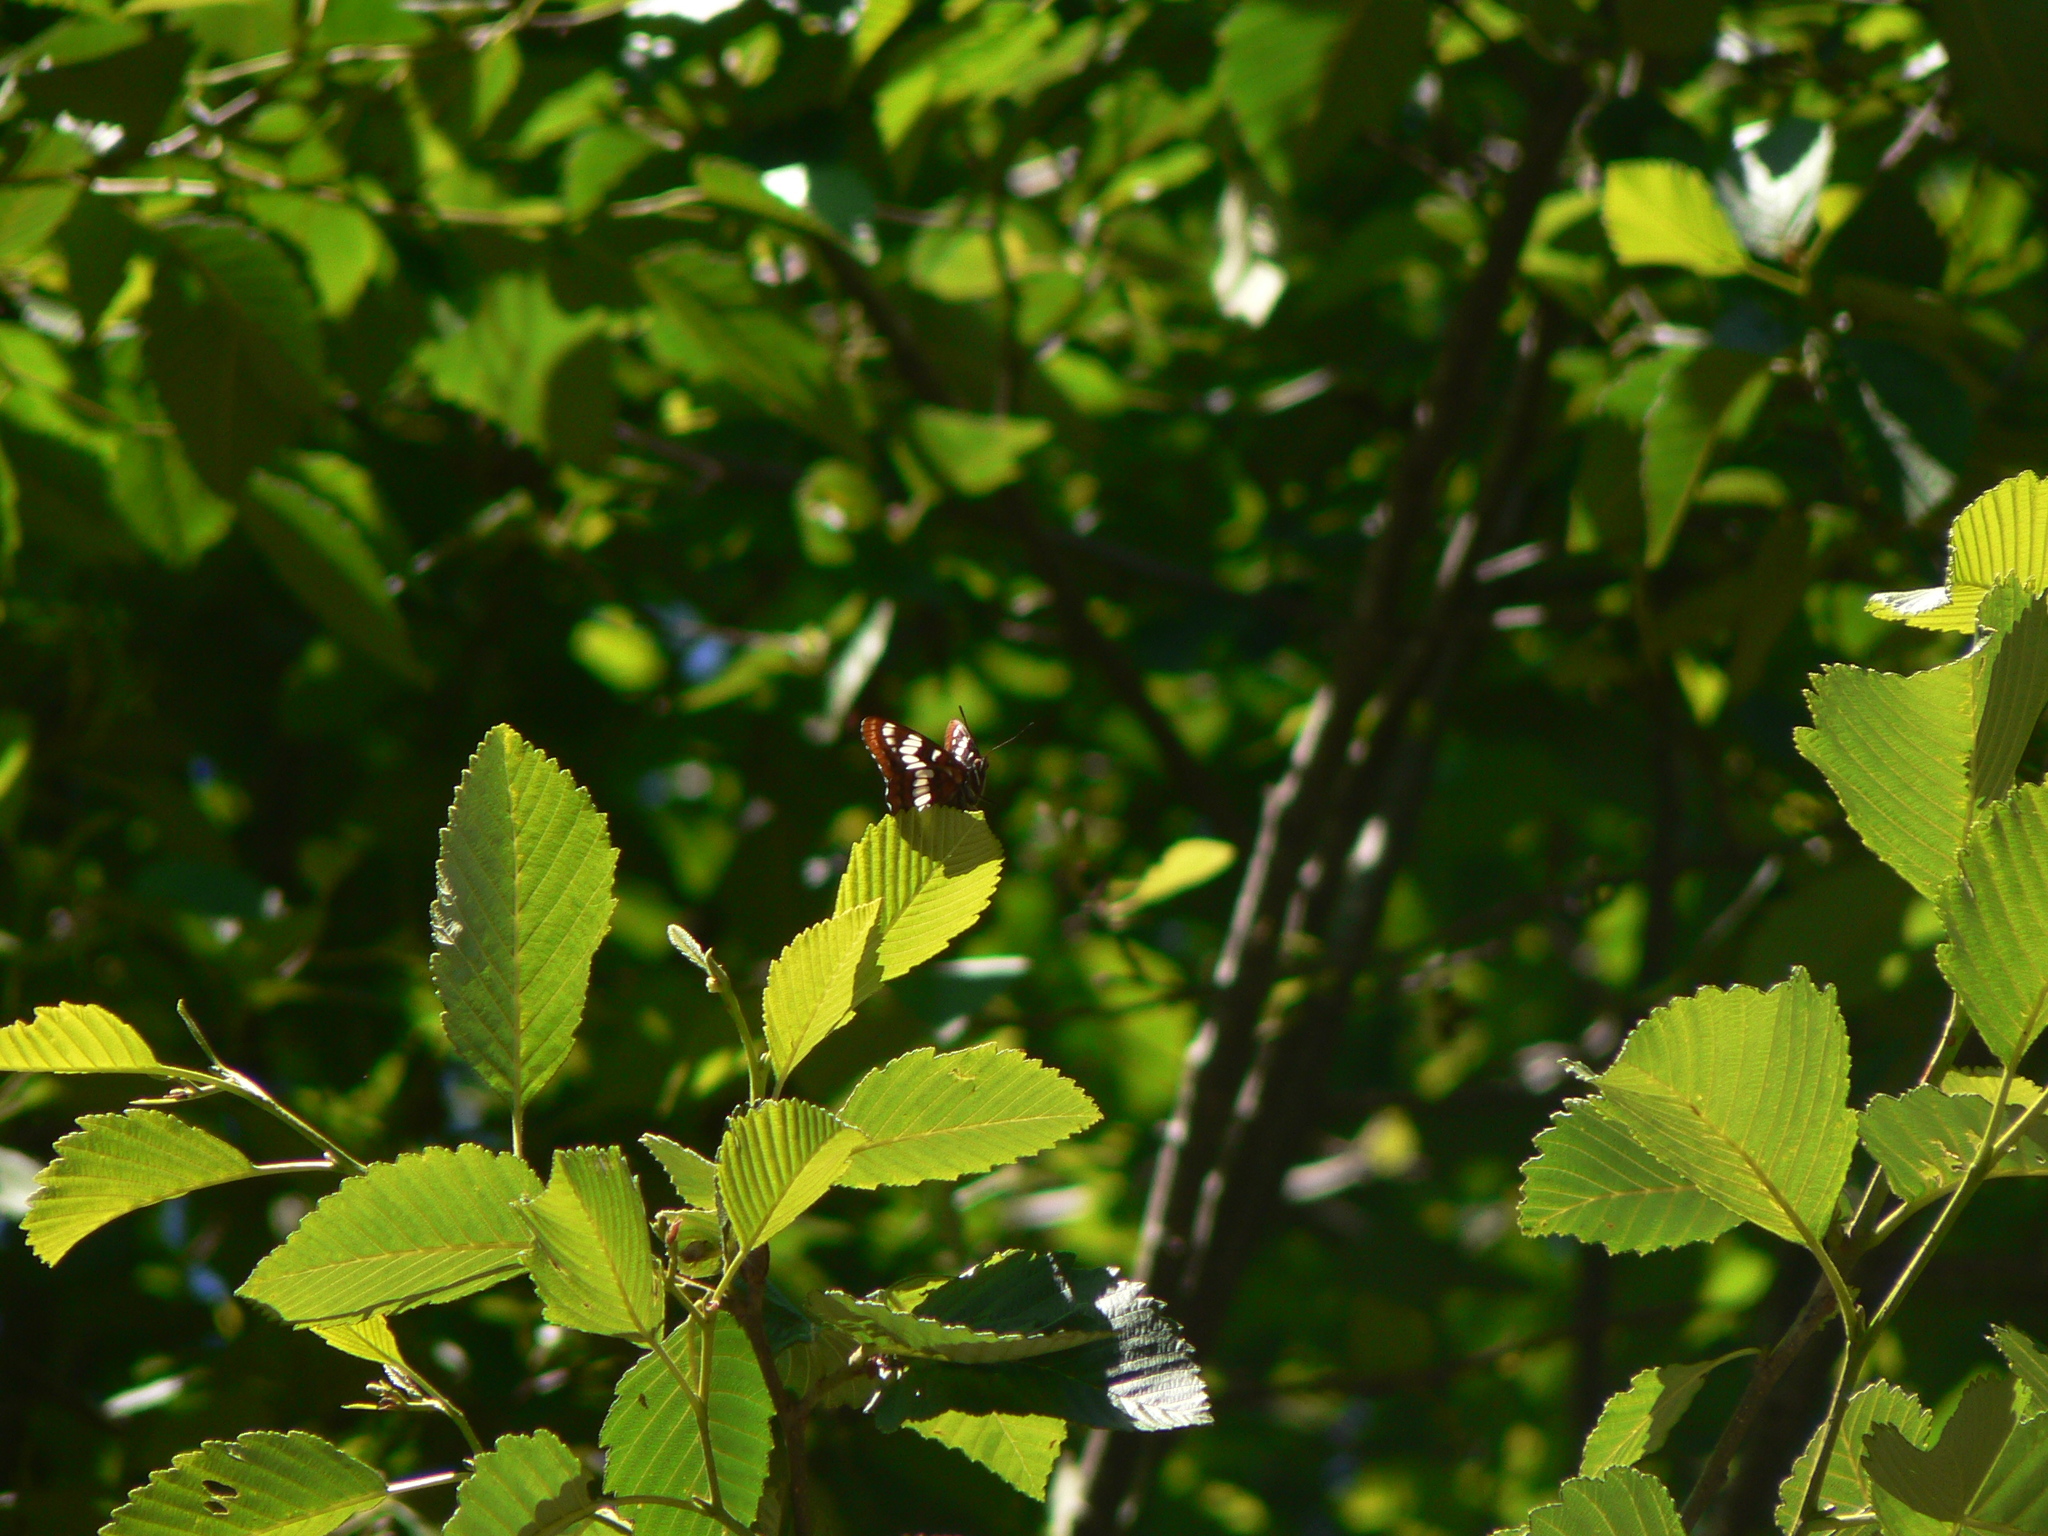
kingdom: Animalia
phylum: Arthropoda
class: Insecta
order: Lepidoptera
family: Nymphalidae
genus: Limenitis
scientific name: Limenitis lorquini
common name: Lorquin's admiral
